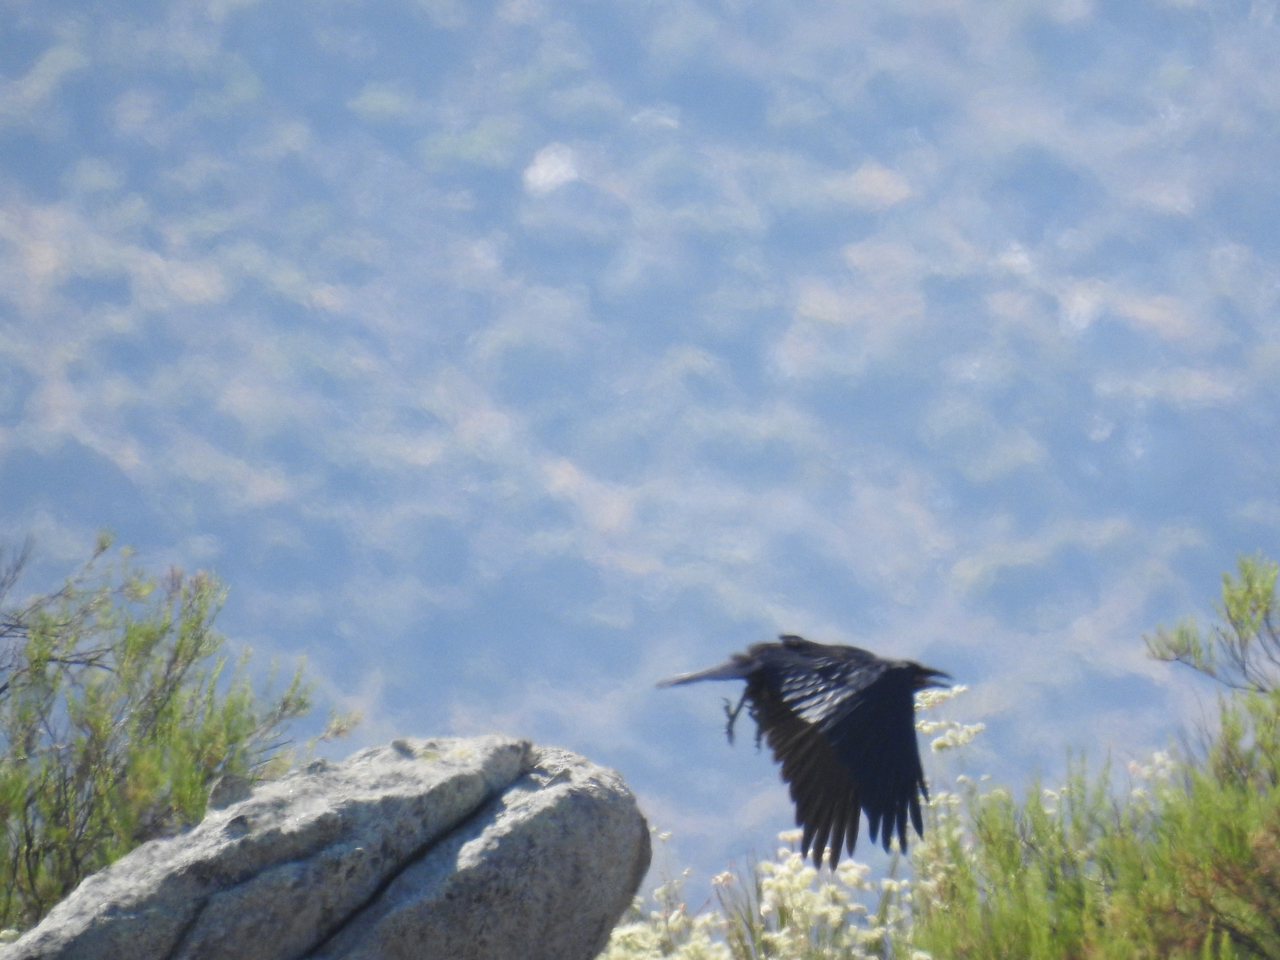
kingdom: Animalia
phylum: Chordata
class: Aves
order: Passeriformes
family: Corvidae
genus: Corvus
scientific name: Corvus corax
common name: Common raven
